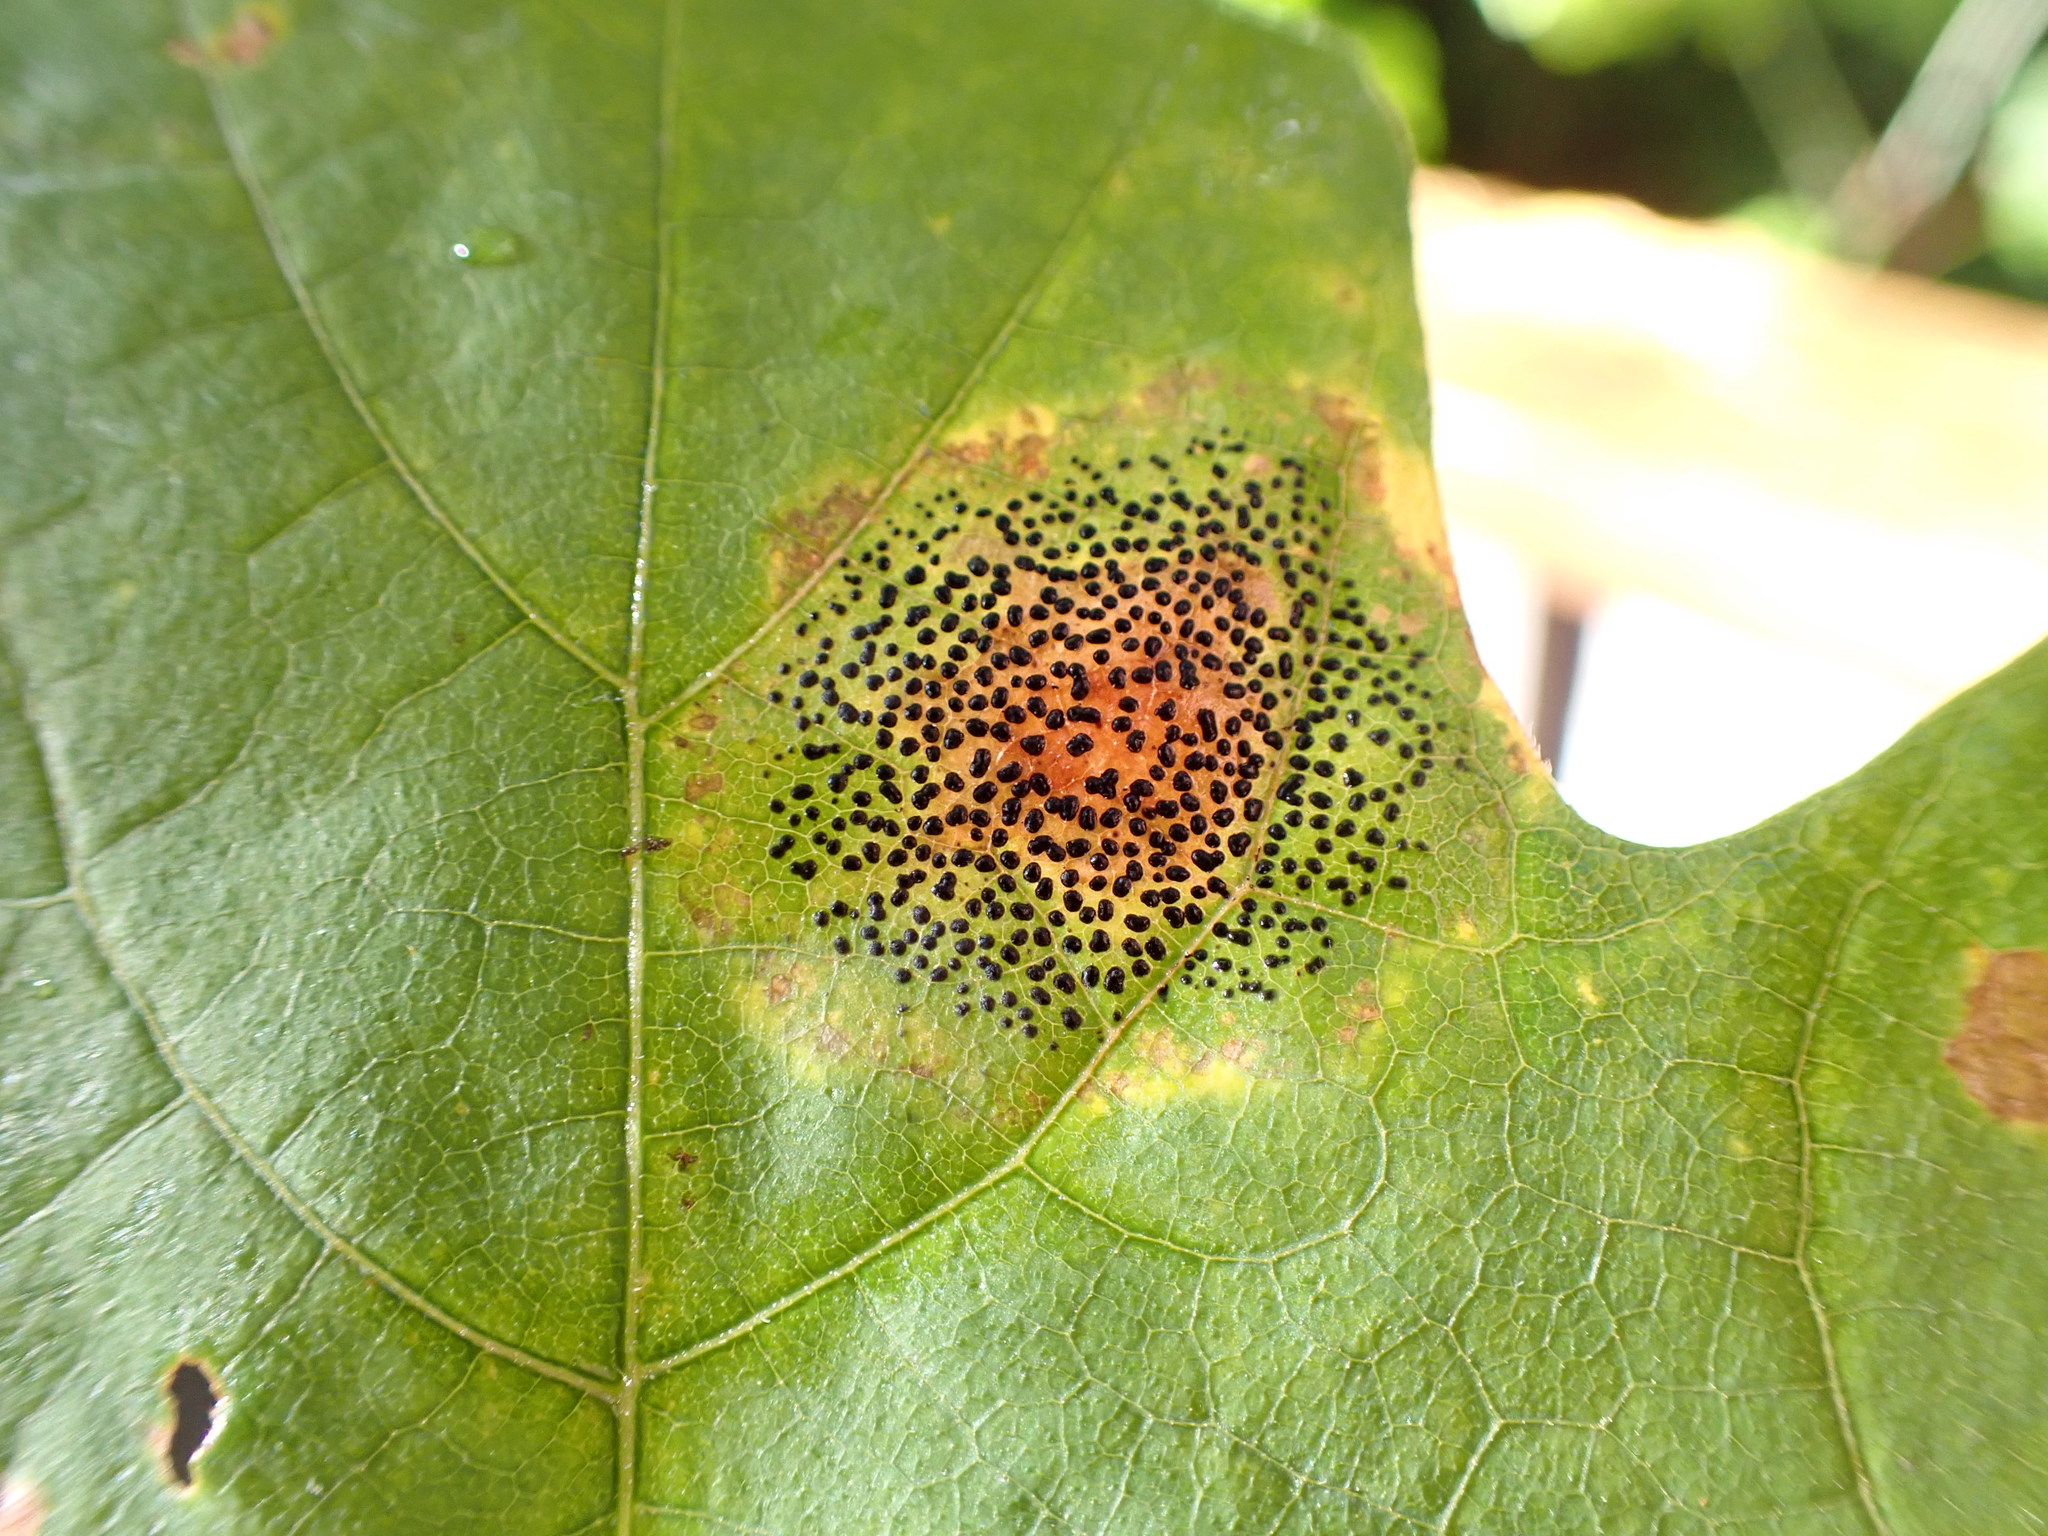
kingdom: Fungi
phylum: Ascomycota
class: Leotiomycetes
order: Rhytismatales
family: Rhytismataceae
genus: Rhytisma
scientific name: Rhytisma punctatum
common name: Speckled tar spot
